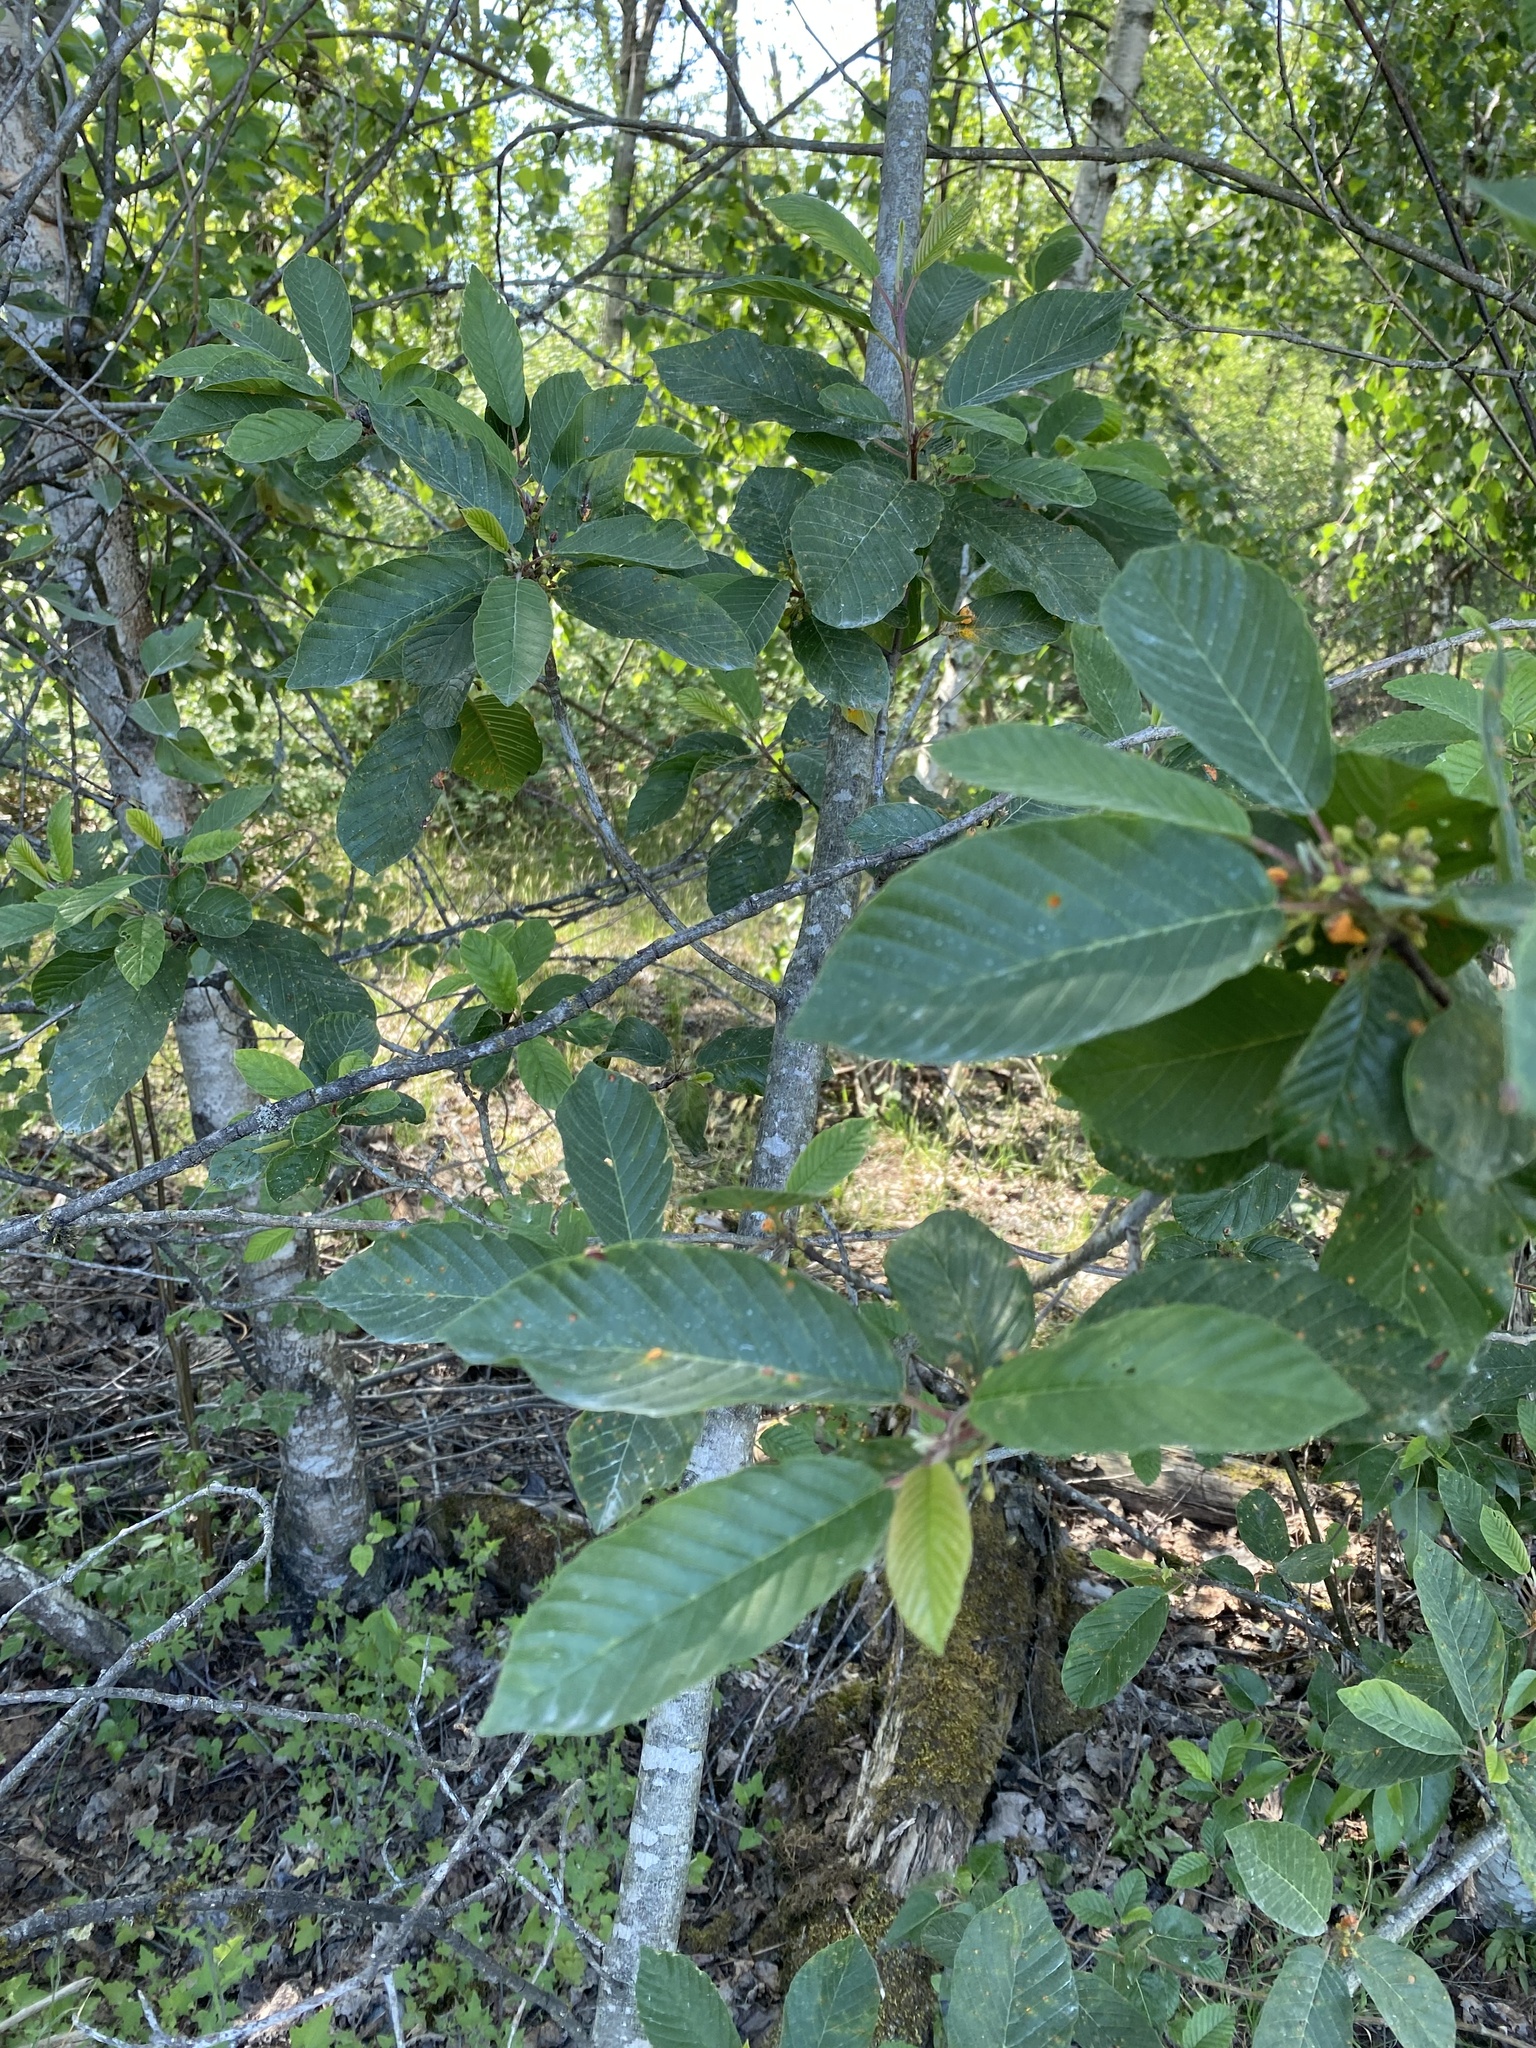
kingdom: Plantae
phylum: Tracheophyta
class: Magnoliopsida
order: Rosales
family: Rhamnaceae
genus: Frangula
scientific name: Frangula purshiana
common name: Cascara buckthorn
